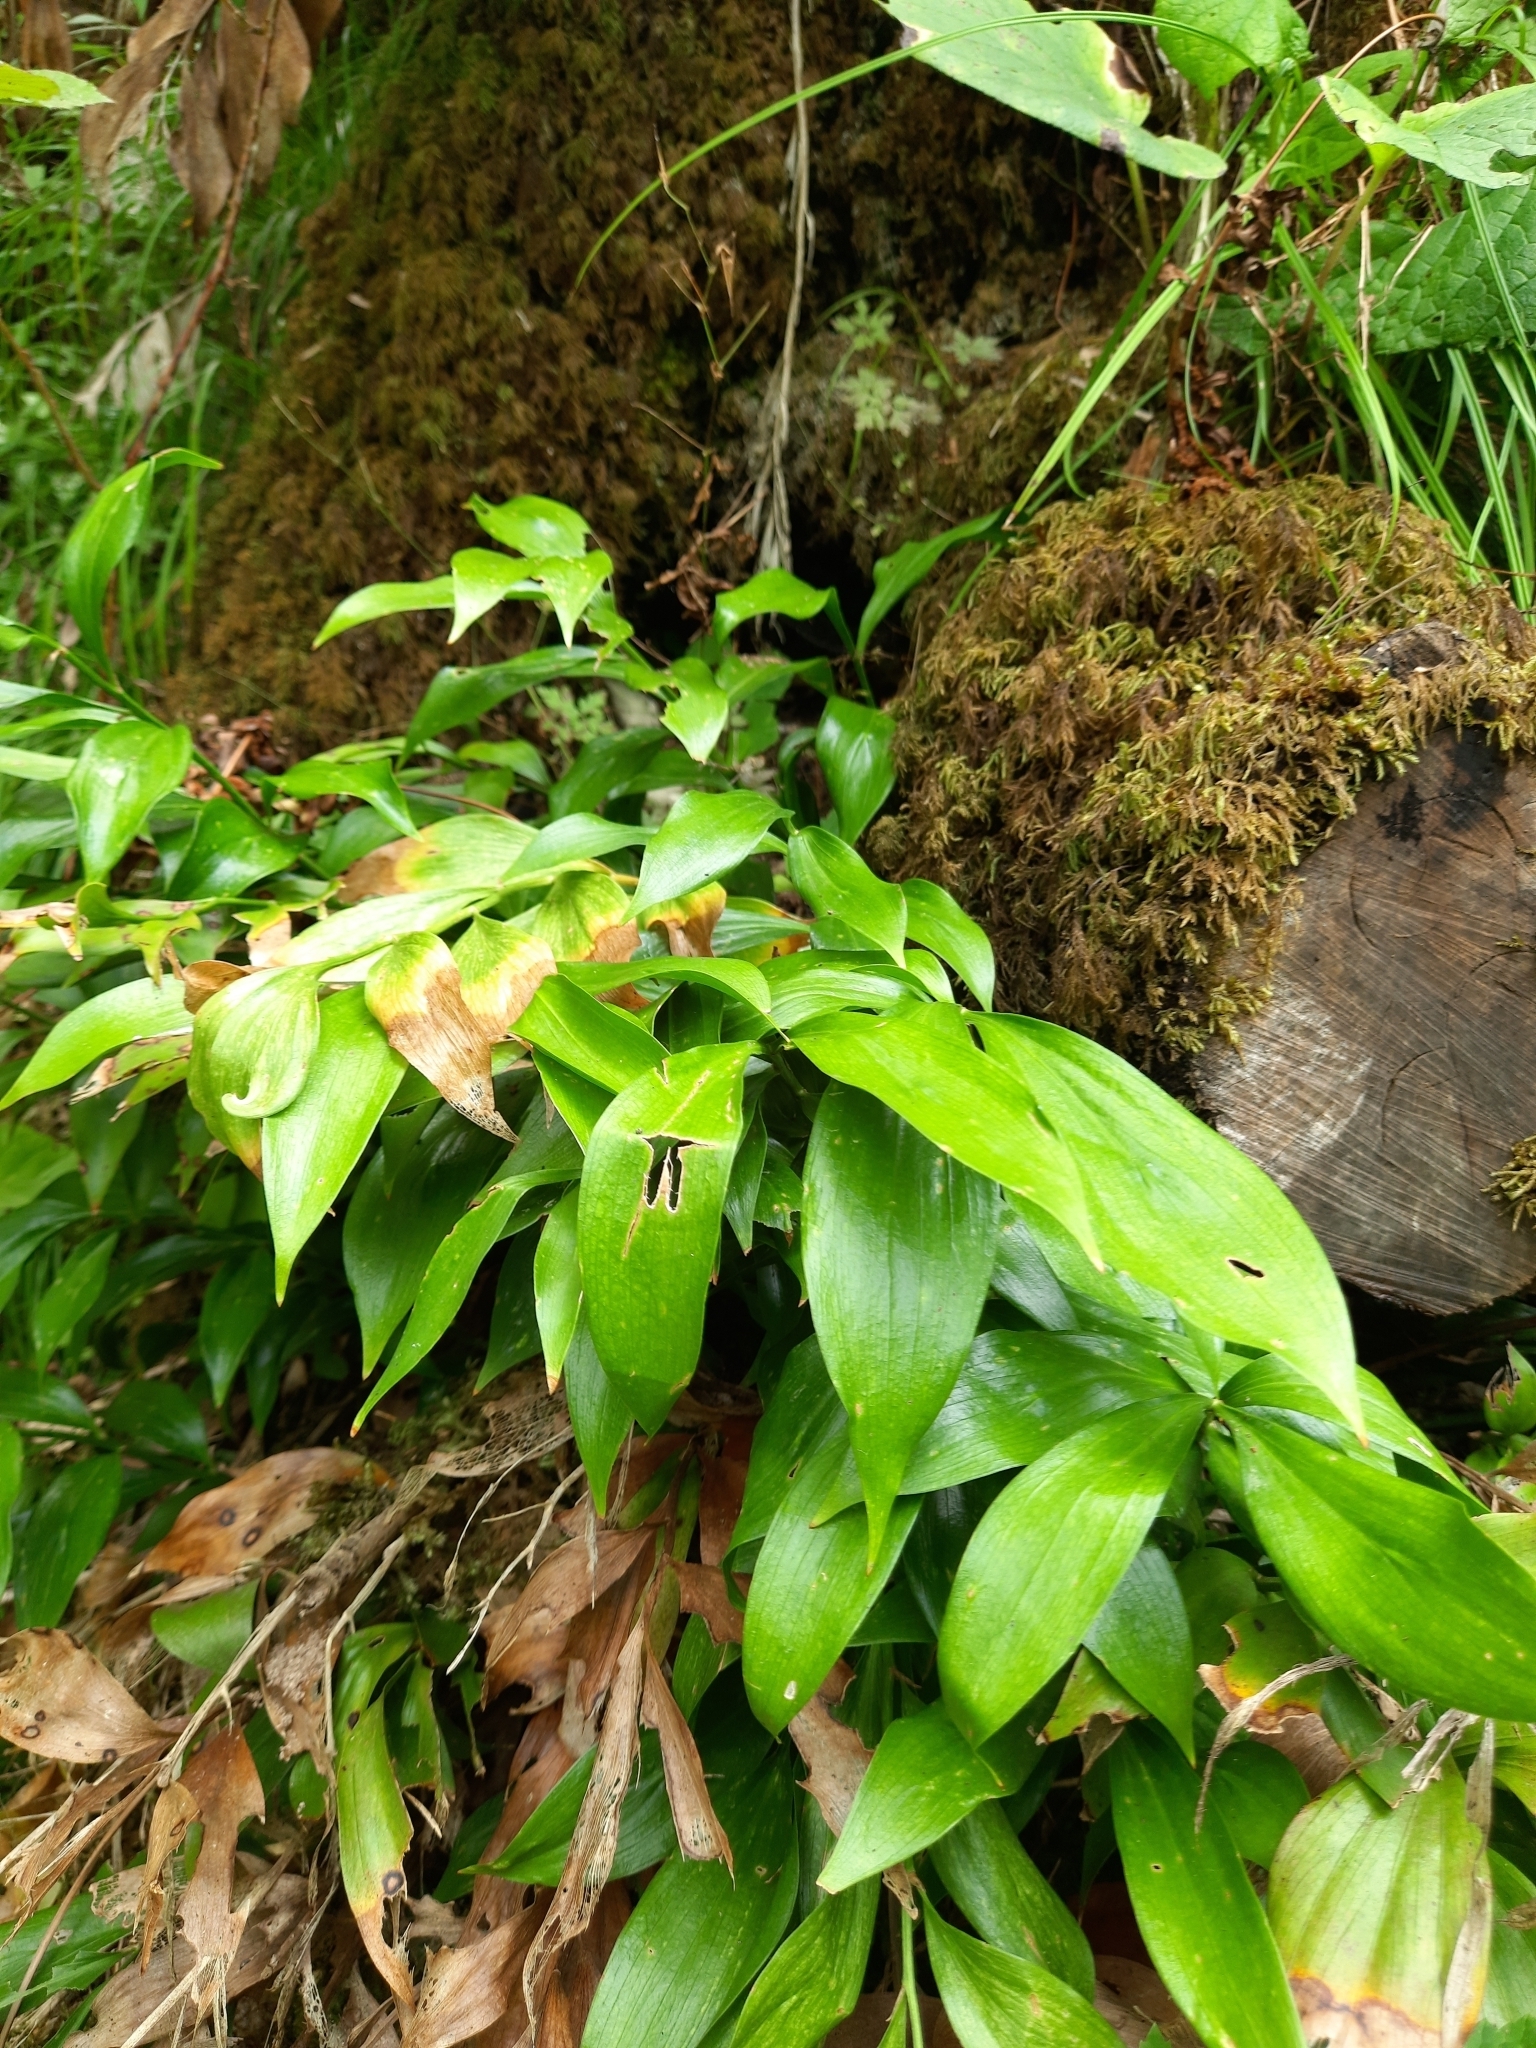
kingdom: Plantae
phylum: Tracheophyta
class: Liliopsida
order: Asparagales
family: Asparagaceae
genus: Ruscus
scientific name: Ruscus colchicus
